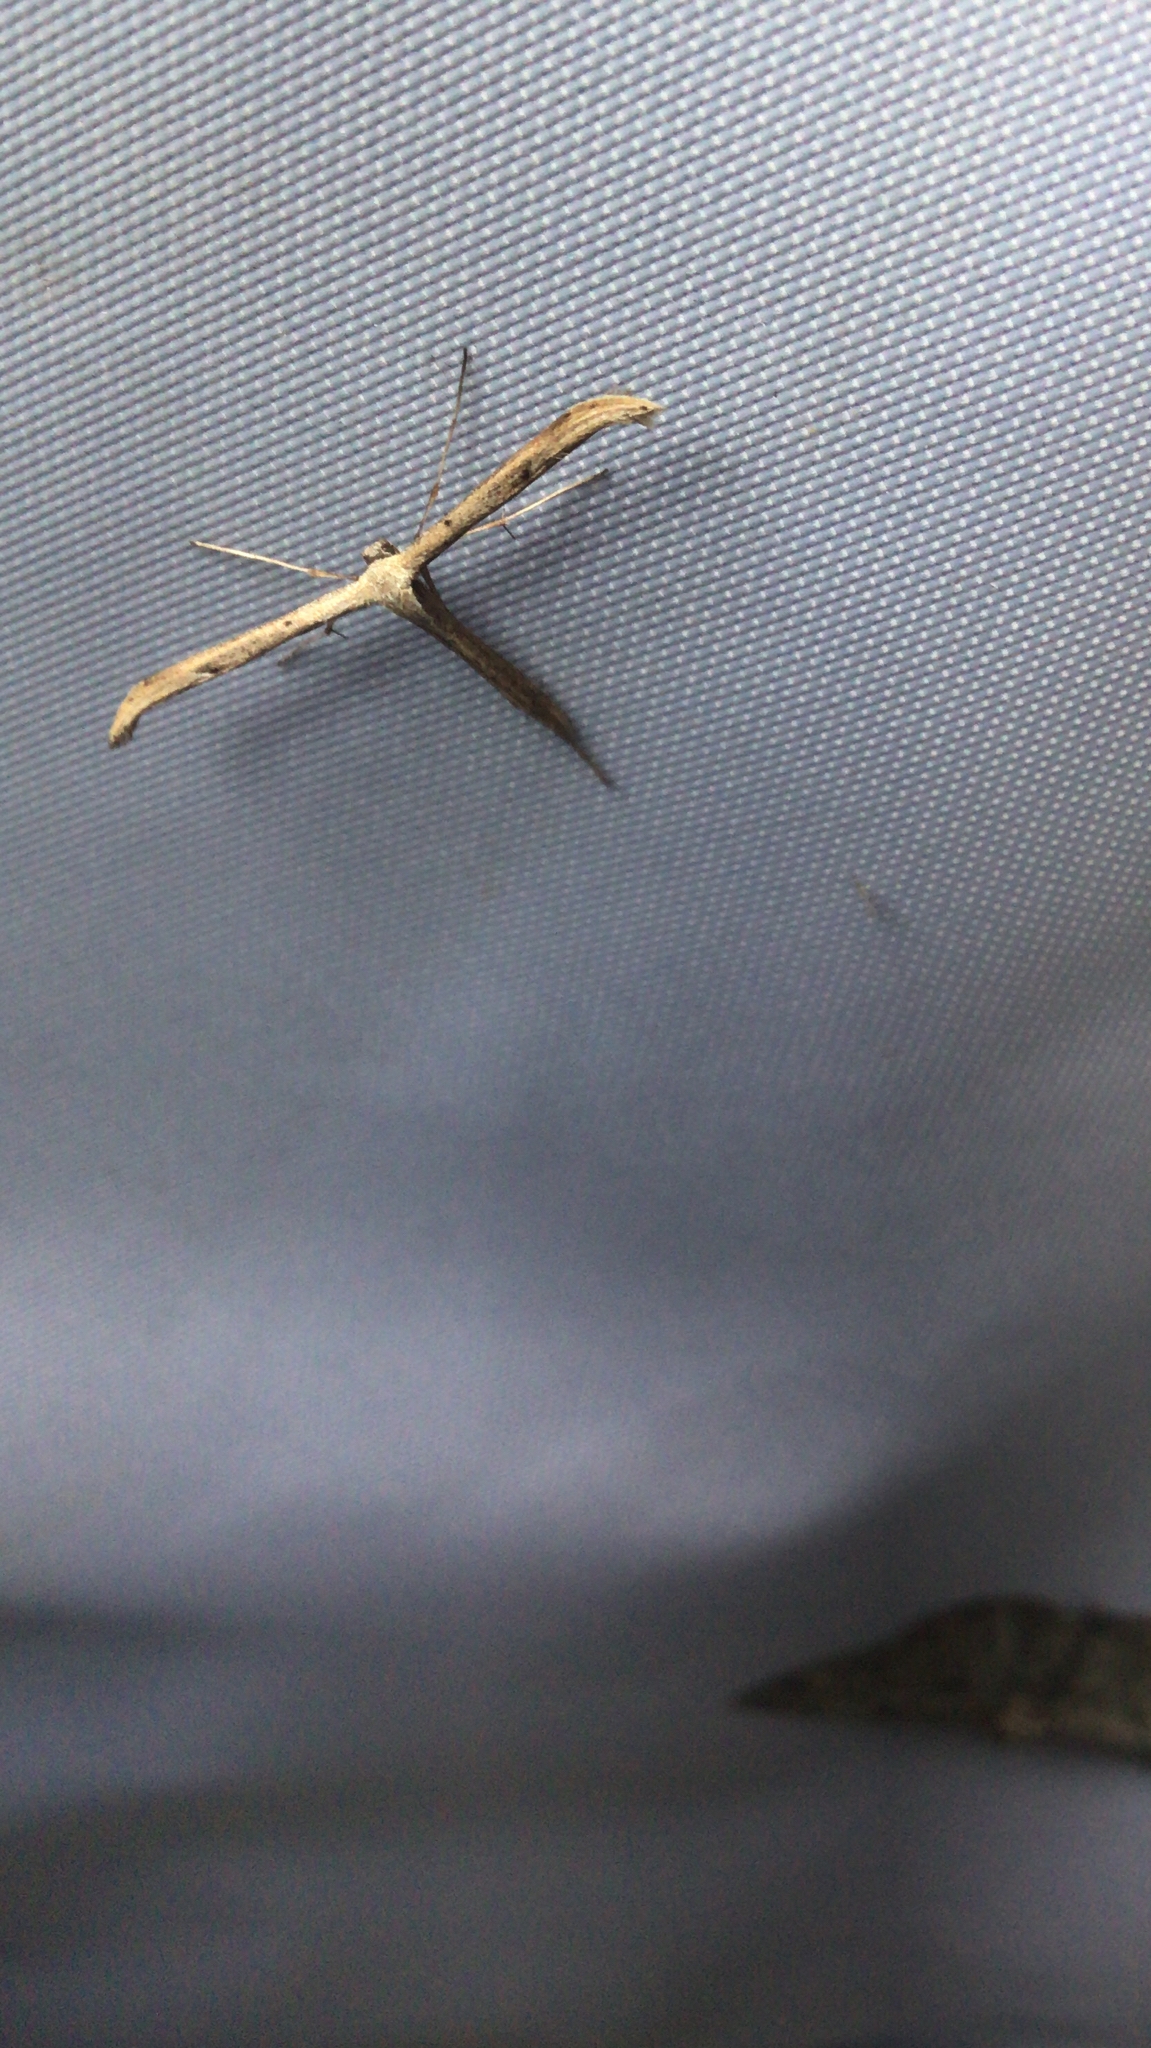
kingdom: Animalia
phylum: Arthropoda
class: Insecta
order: Lepidoptera
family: Pterophoridae
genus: Emmelina
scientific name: Emmelina monodactyla
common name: Common plume
